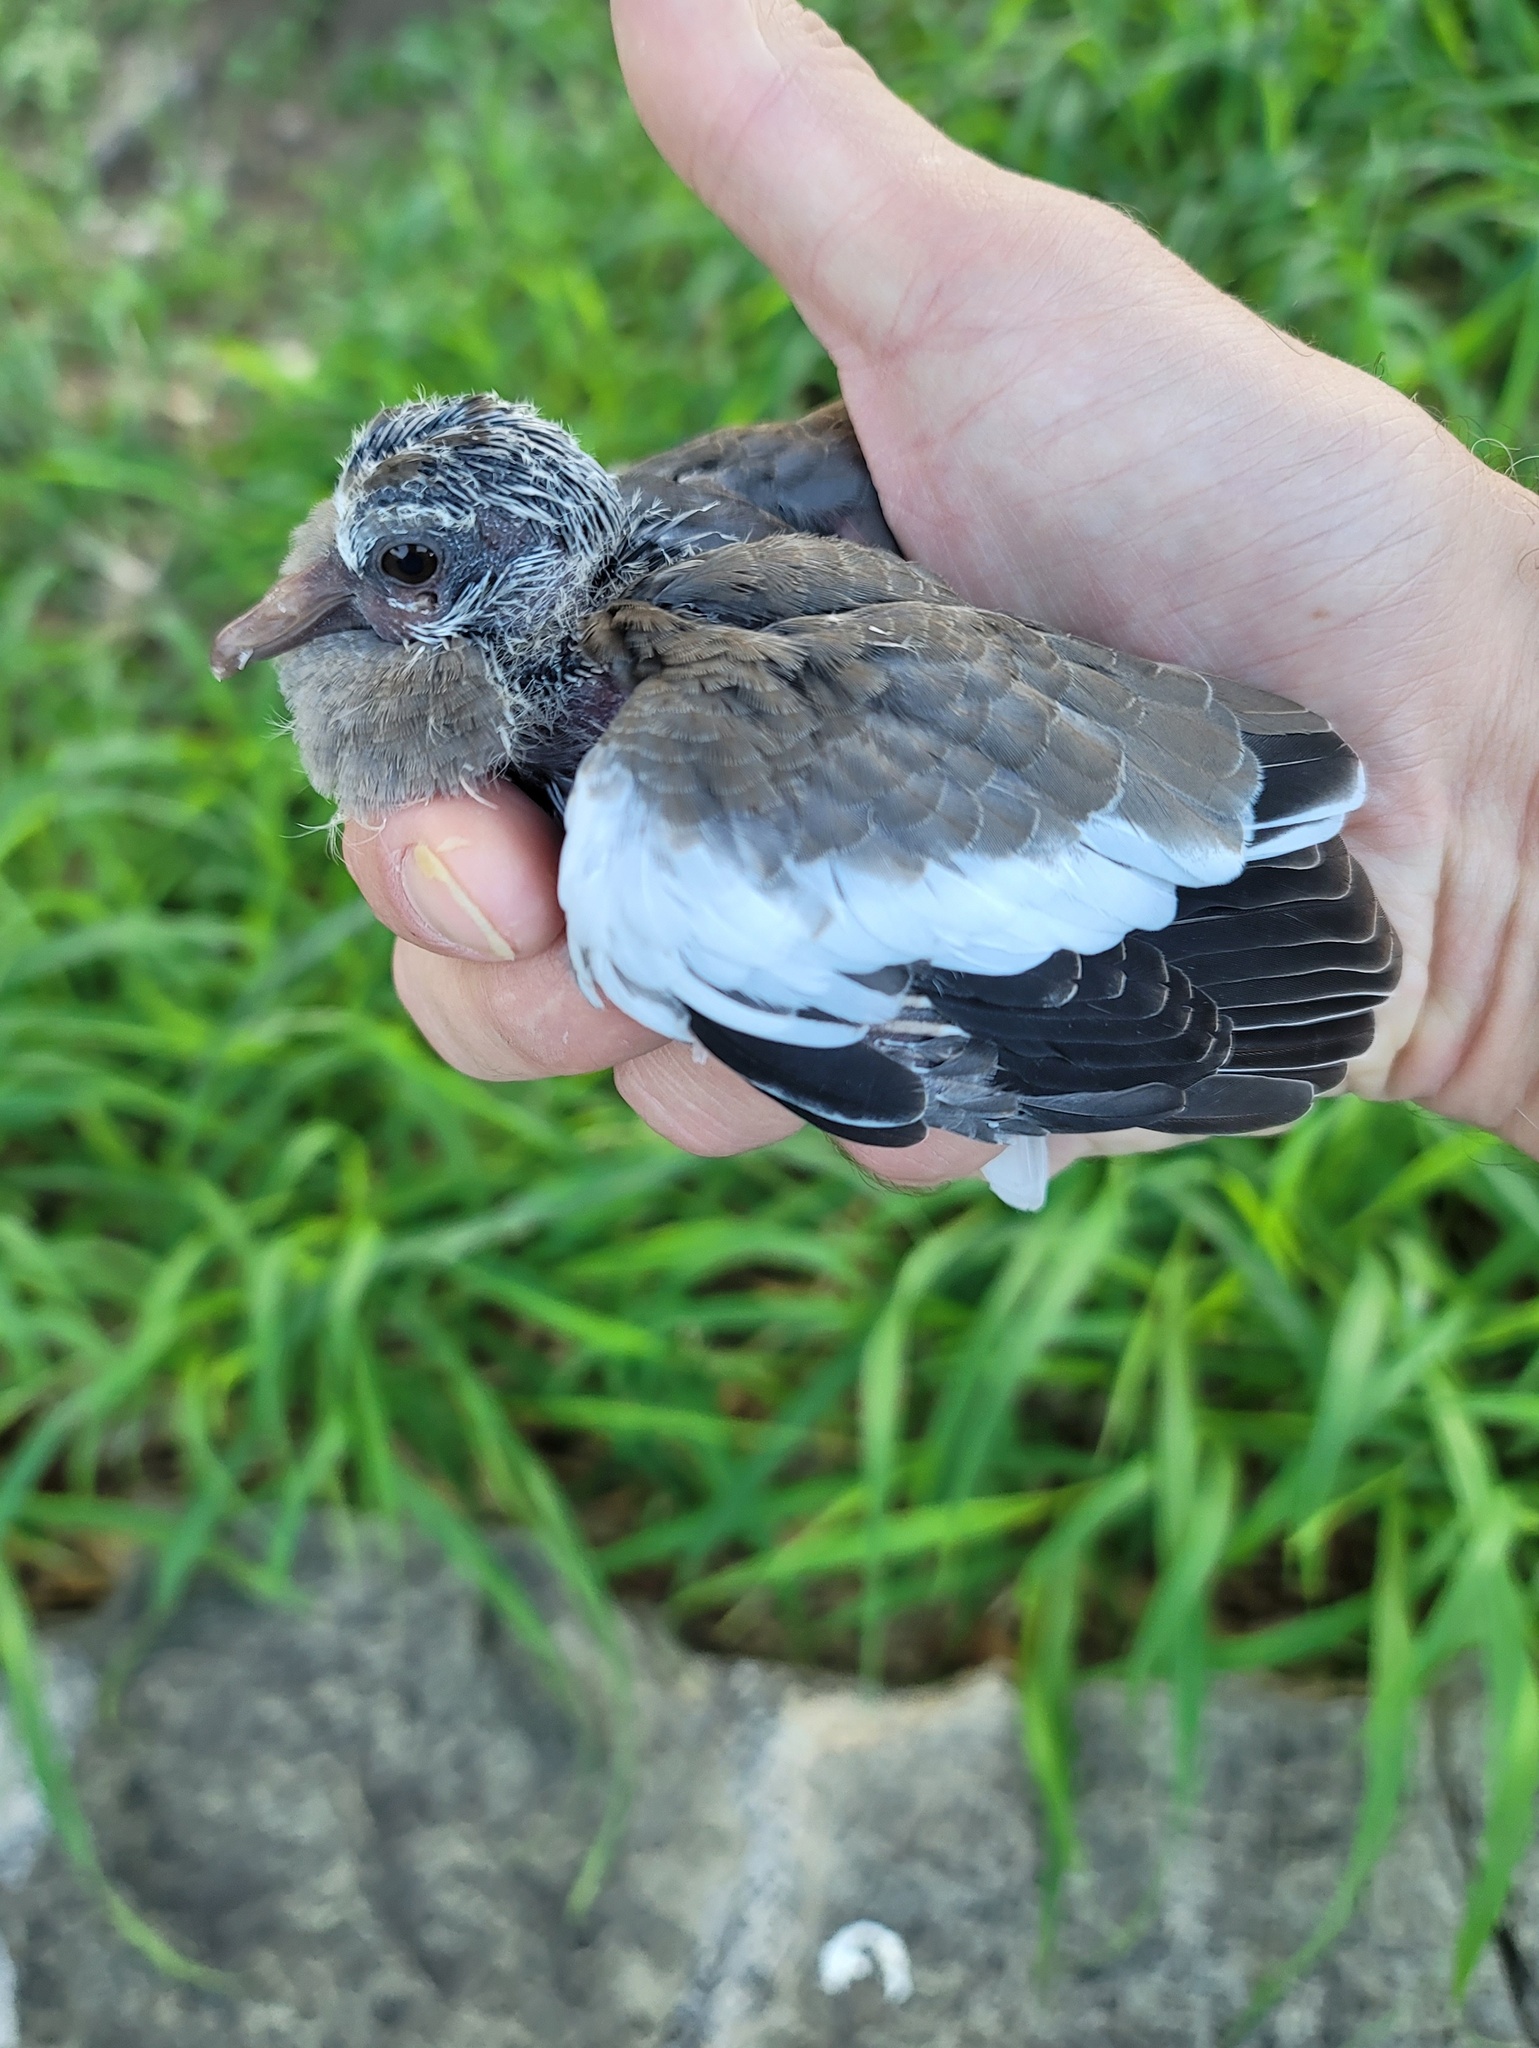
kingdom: Animalia
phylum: Chordata
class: Aves
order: Columbiformes
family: Columbidae
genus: Zenaida
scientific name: Zenaida asiatica
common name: White-winged dove
